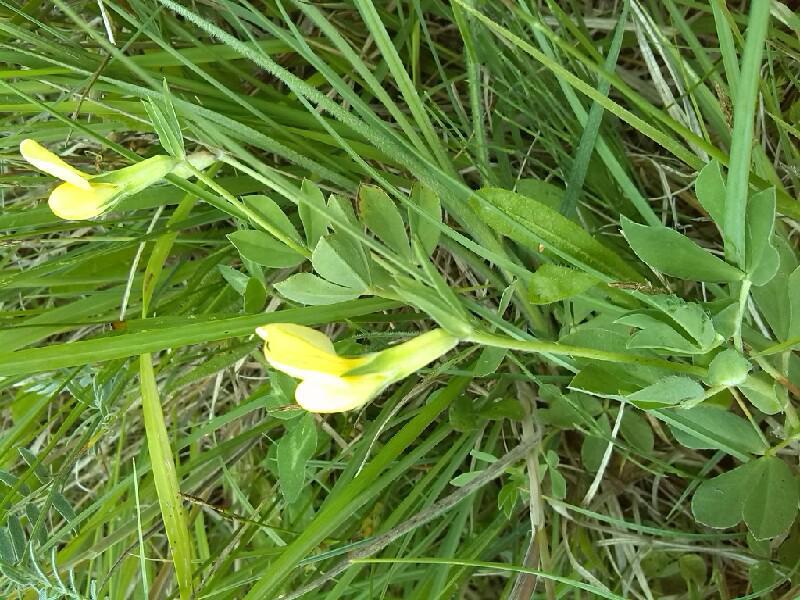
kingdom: Plantae
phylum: Tracheophyta
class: Magnoliopsida
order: Fabales
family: Fabaceae
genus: Lotus
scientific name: Lotus maritimus
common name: Dragon's-teeth
